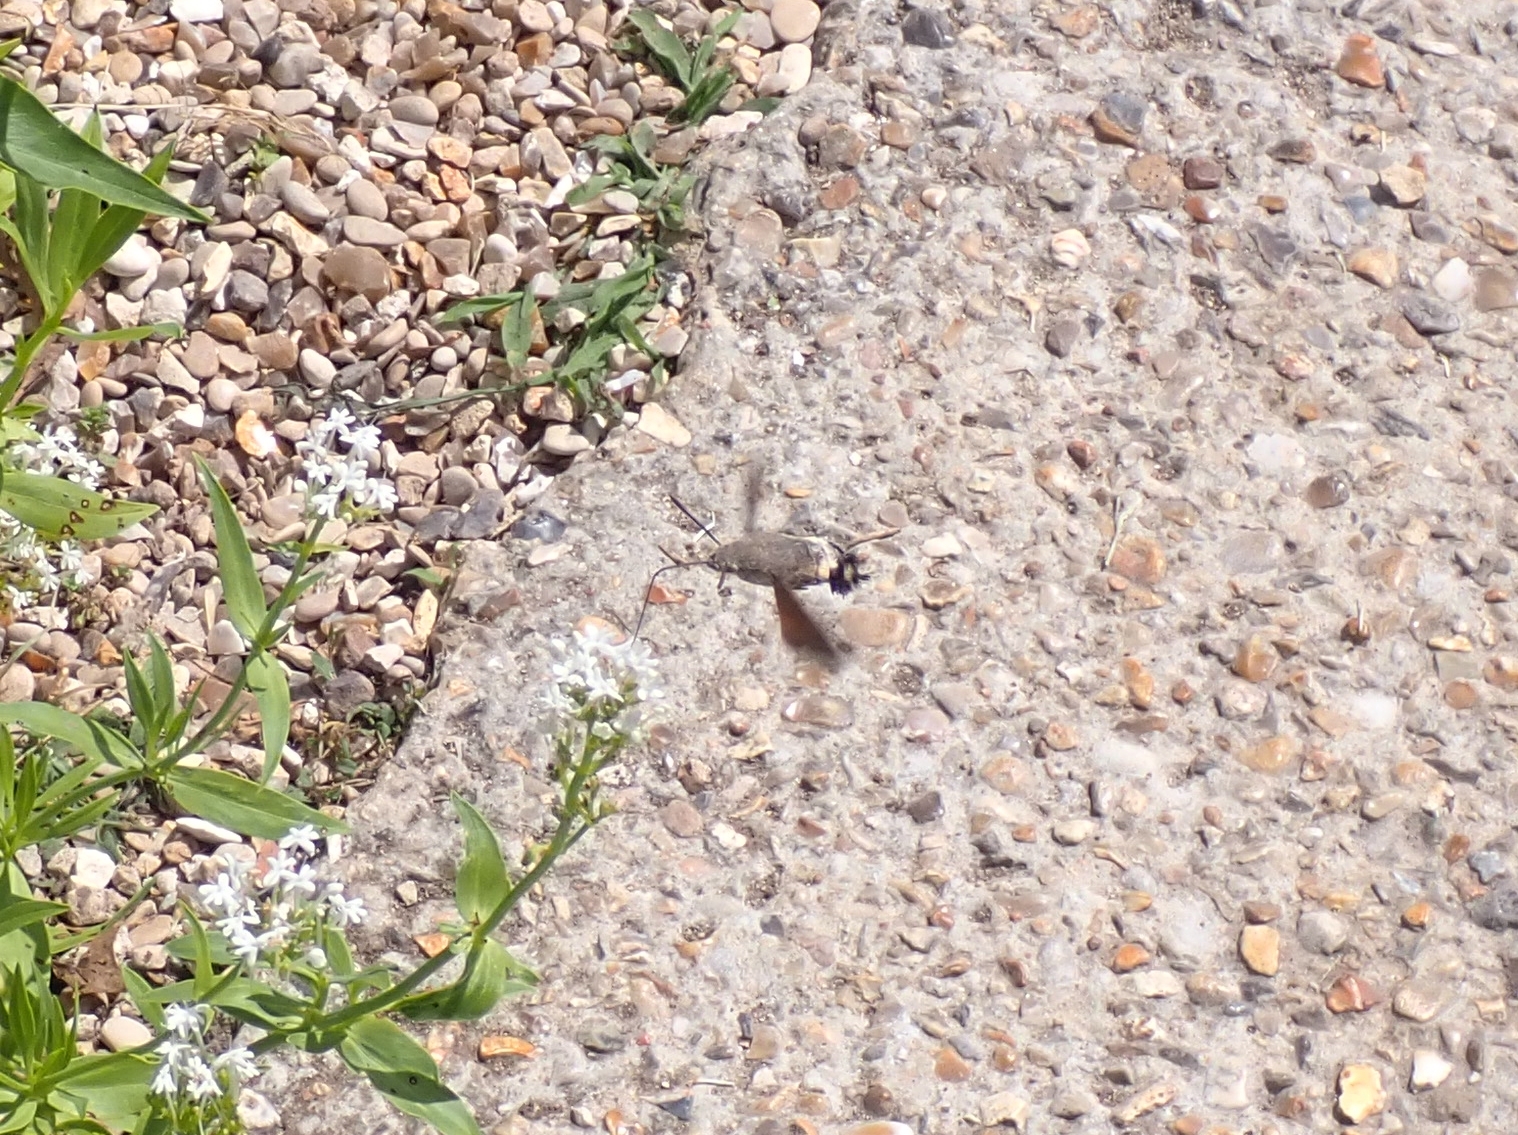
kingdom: Animalia
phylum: Arthropoda
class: Insecta
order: Lepidoptera
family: Sphingidae
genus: Macroglossum
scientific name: Macroglossum stellatarum
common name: Humming-bird hawk-moth
